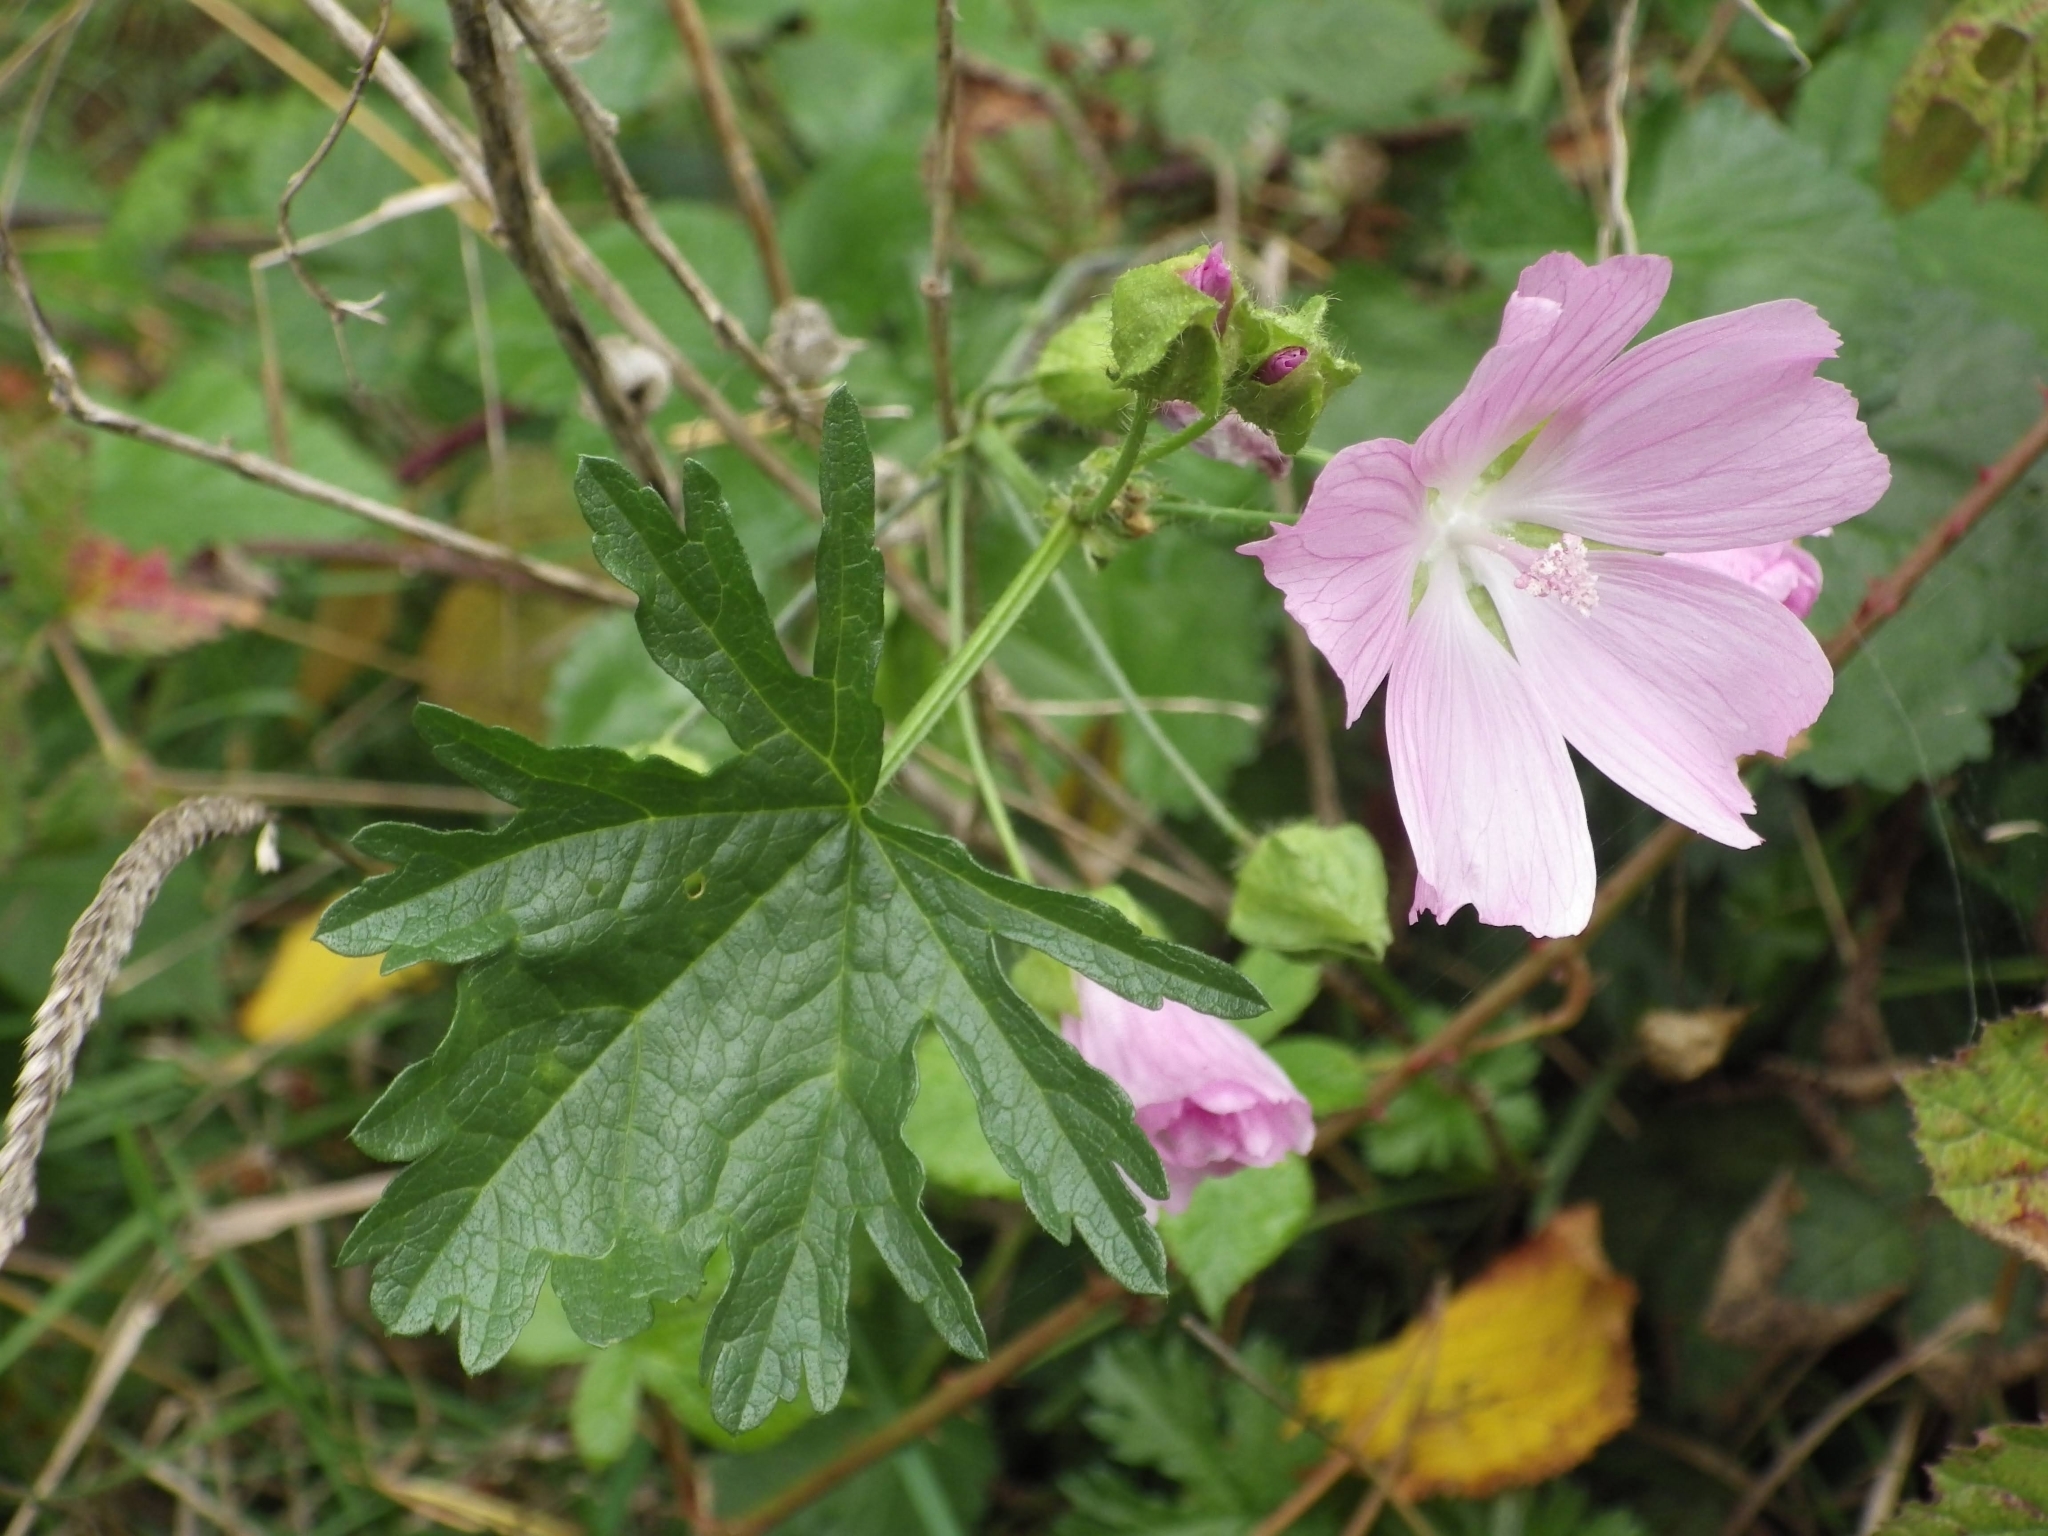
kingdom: Plantae
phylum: Tracheophyta
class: Magnoliopsida
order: Malvales
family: Malvaceae
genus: Malva
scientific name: Malva moschata
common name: Musk mallow
